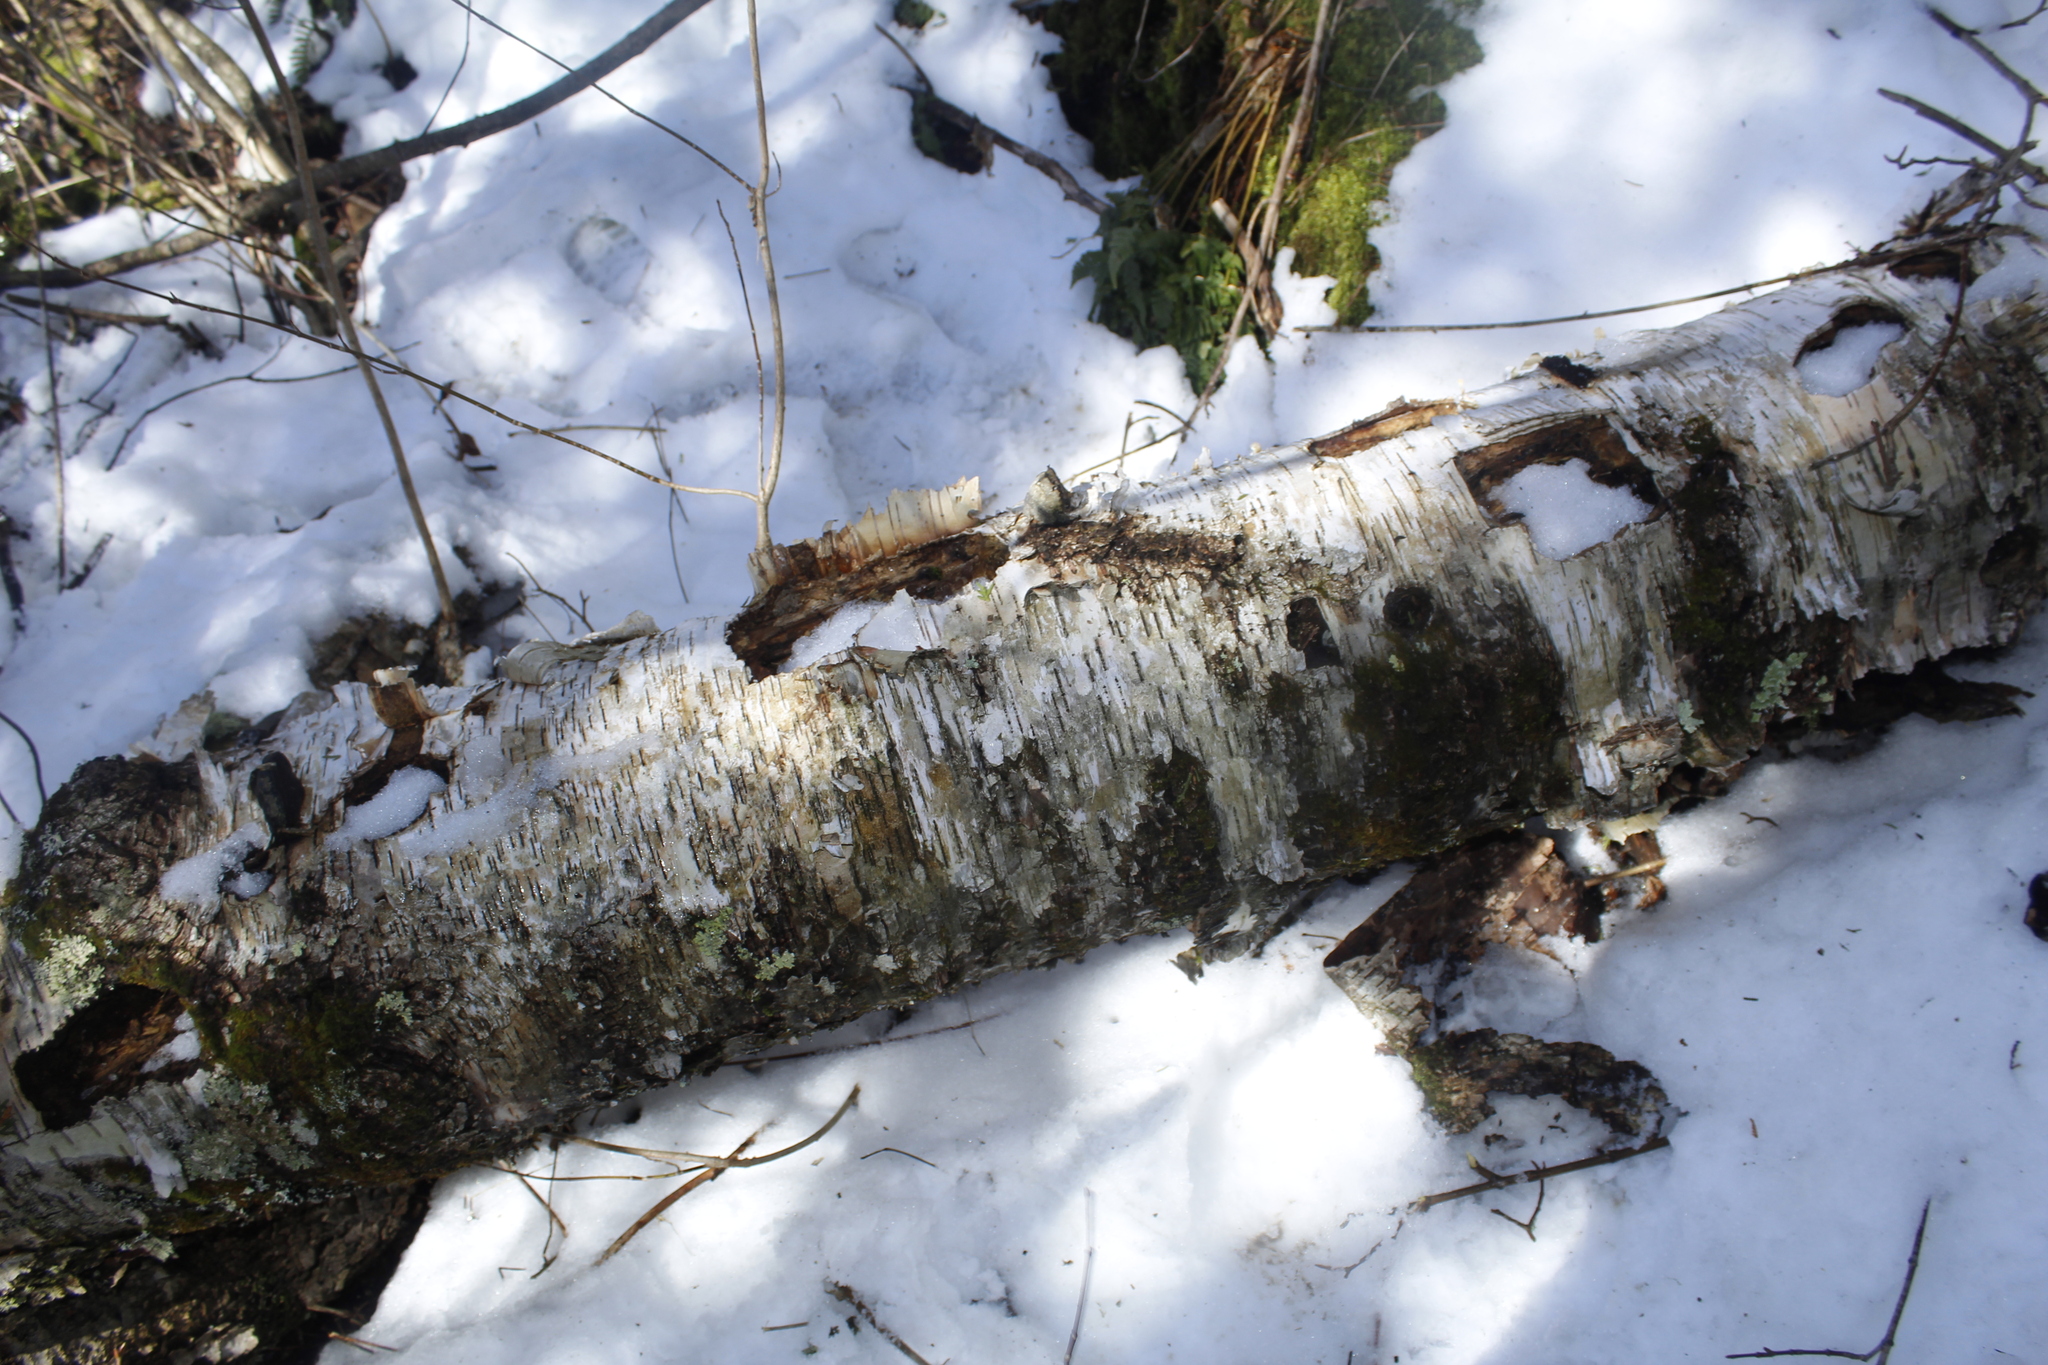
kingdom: Plantae
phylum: Tracheophyta
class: Magnoliopsida
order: Fagales
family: Betulaceae
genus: Betula
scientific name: Betula papyrifera
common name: Paper birch
